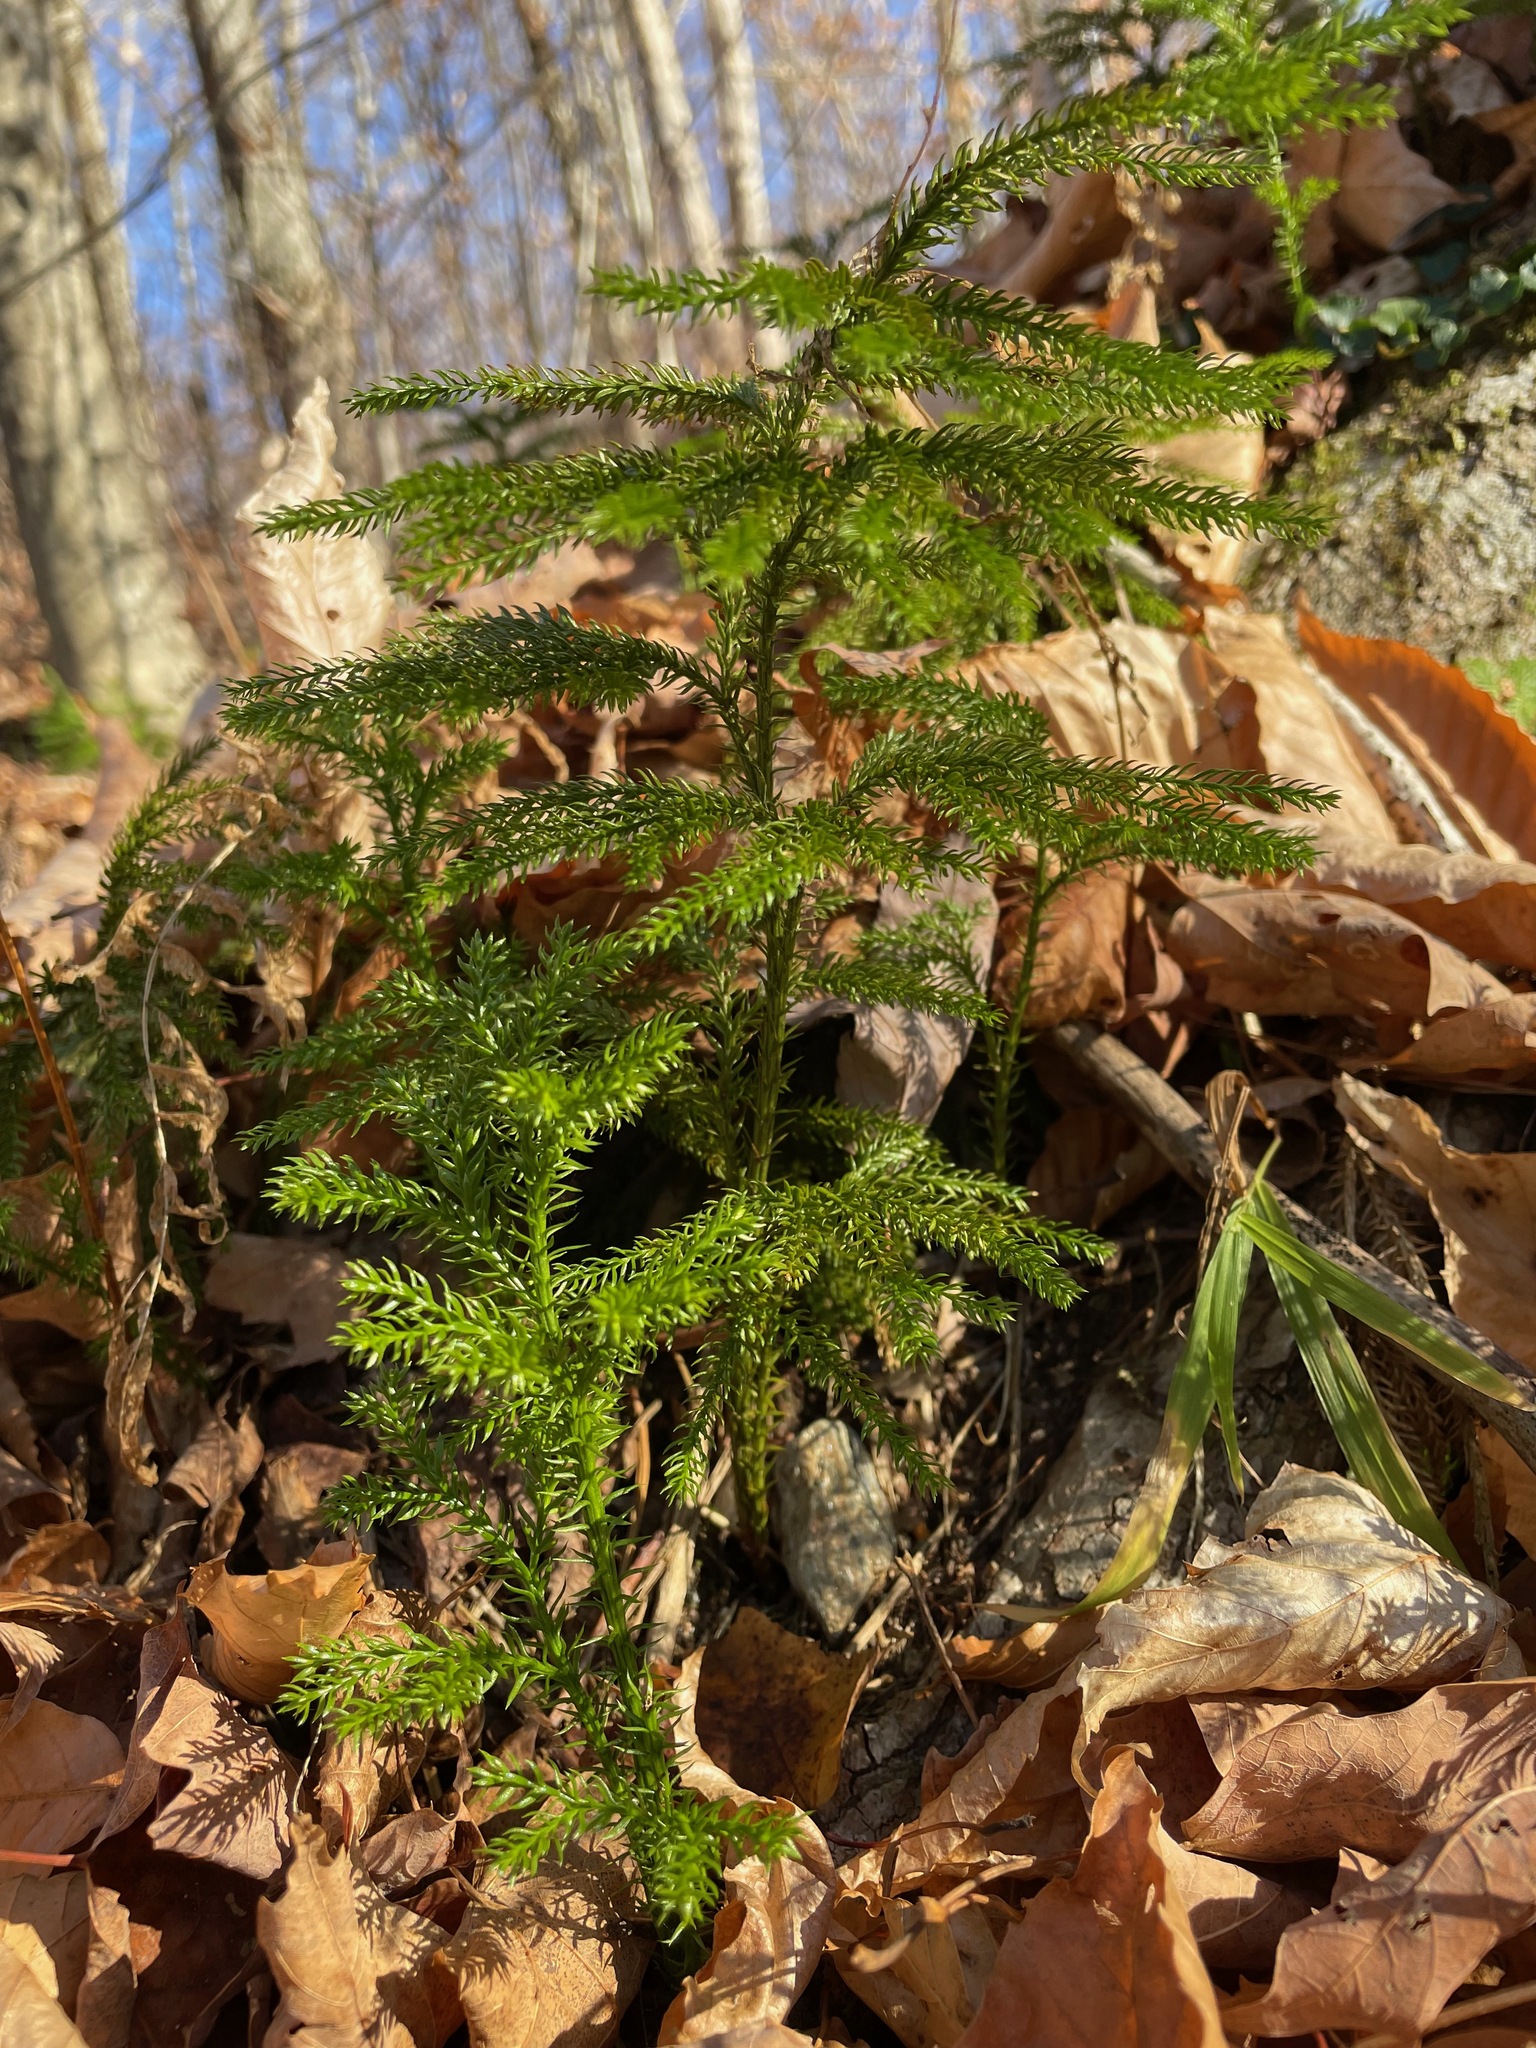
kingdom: Plantae
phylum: Tracheophyta
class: Lycopodiopsida
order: Lycopodiales
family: Lycopodiaceae
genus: Dendrolycopodium
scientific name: Dendrolycopodium dendroideum
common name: Northern tree-clubmoss
